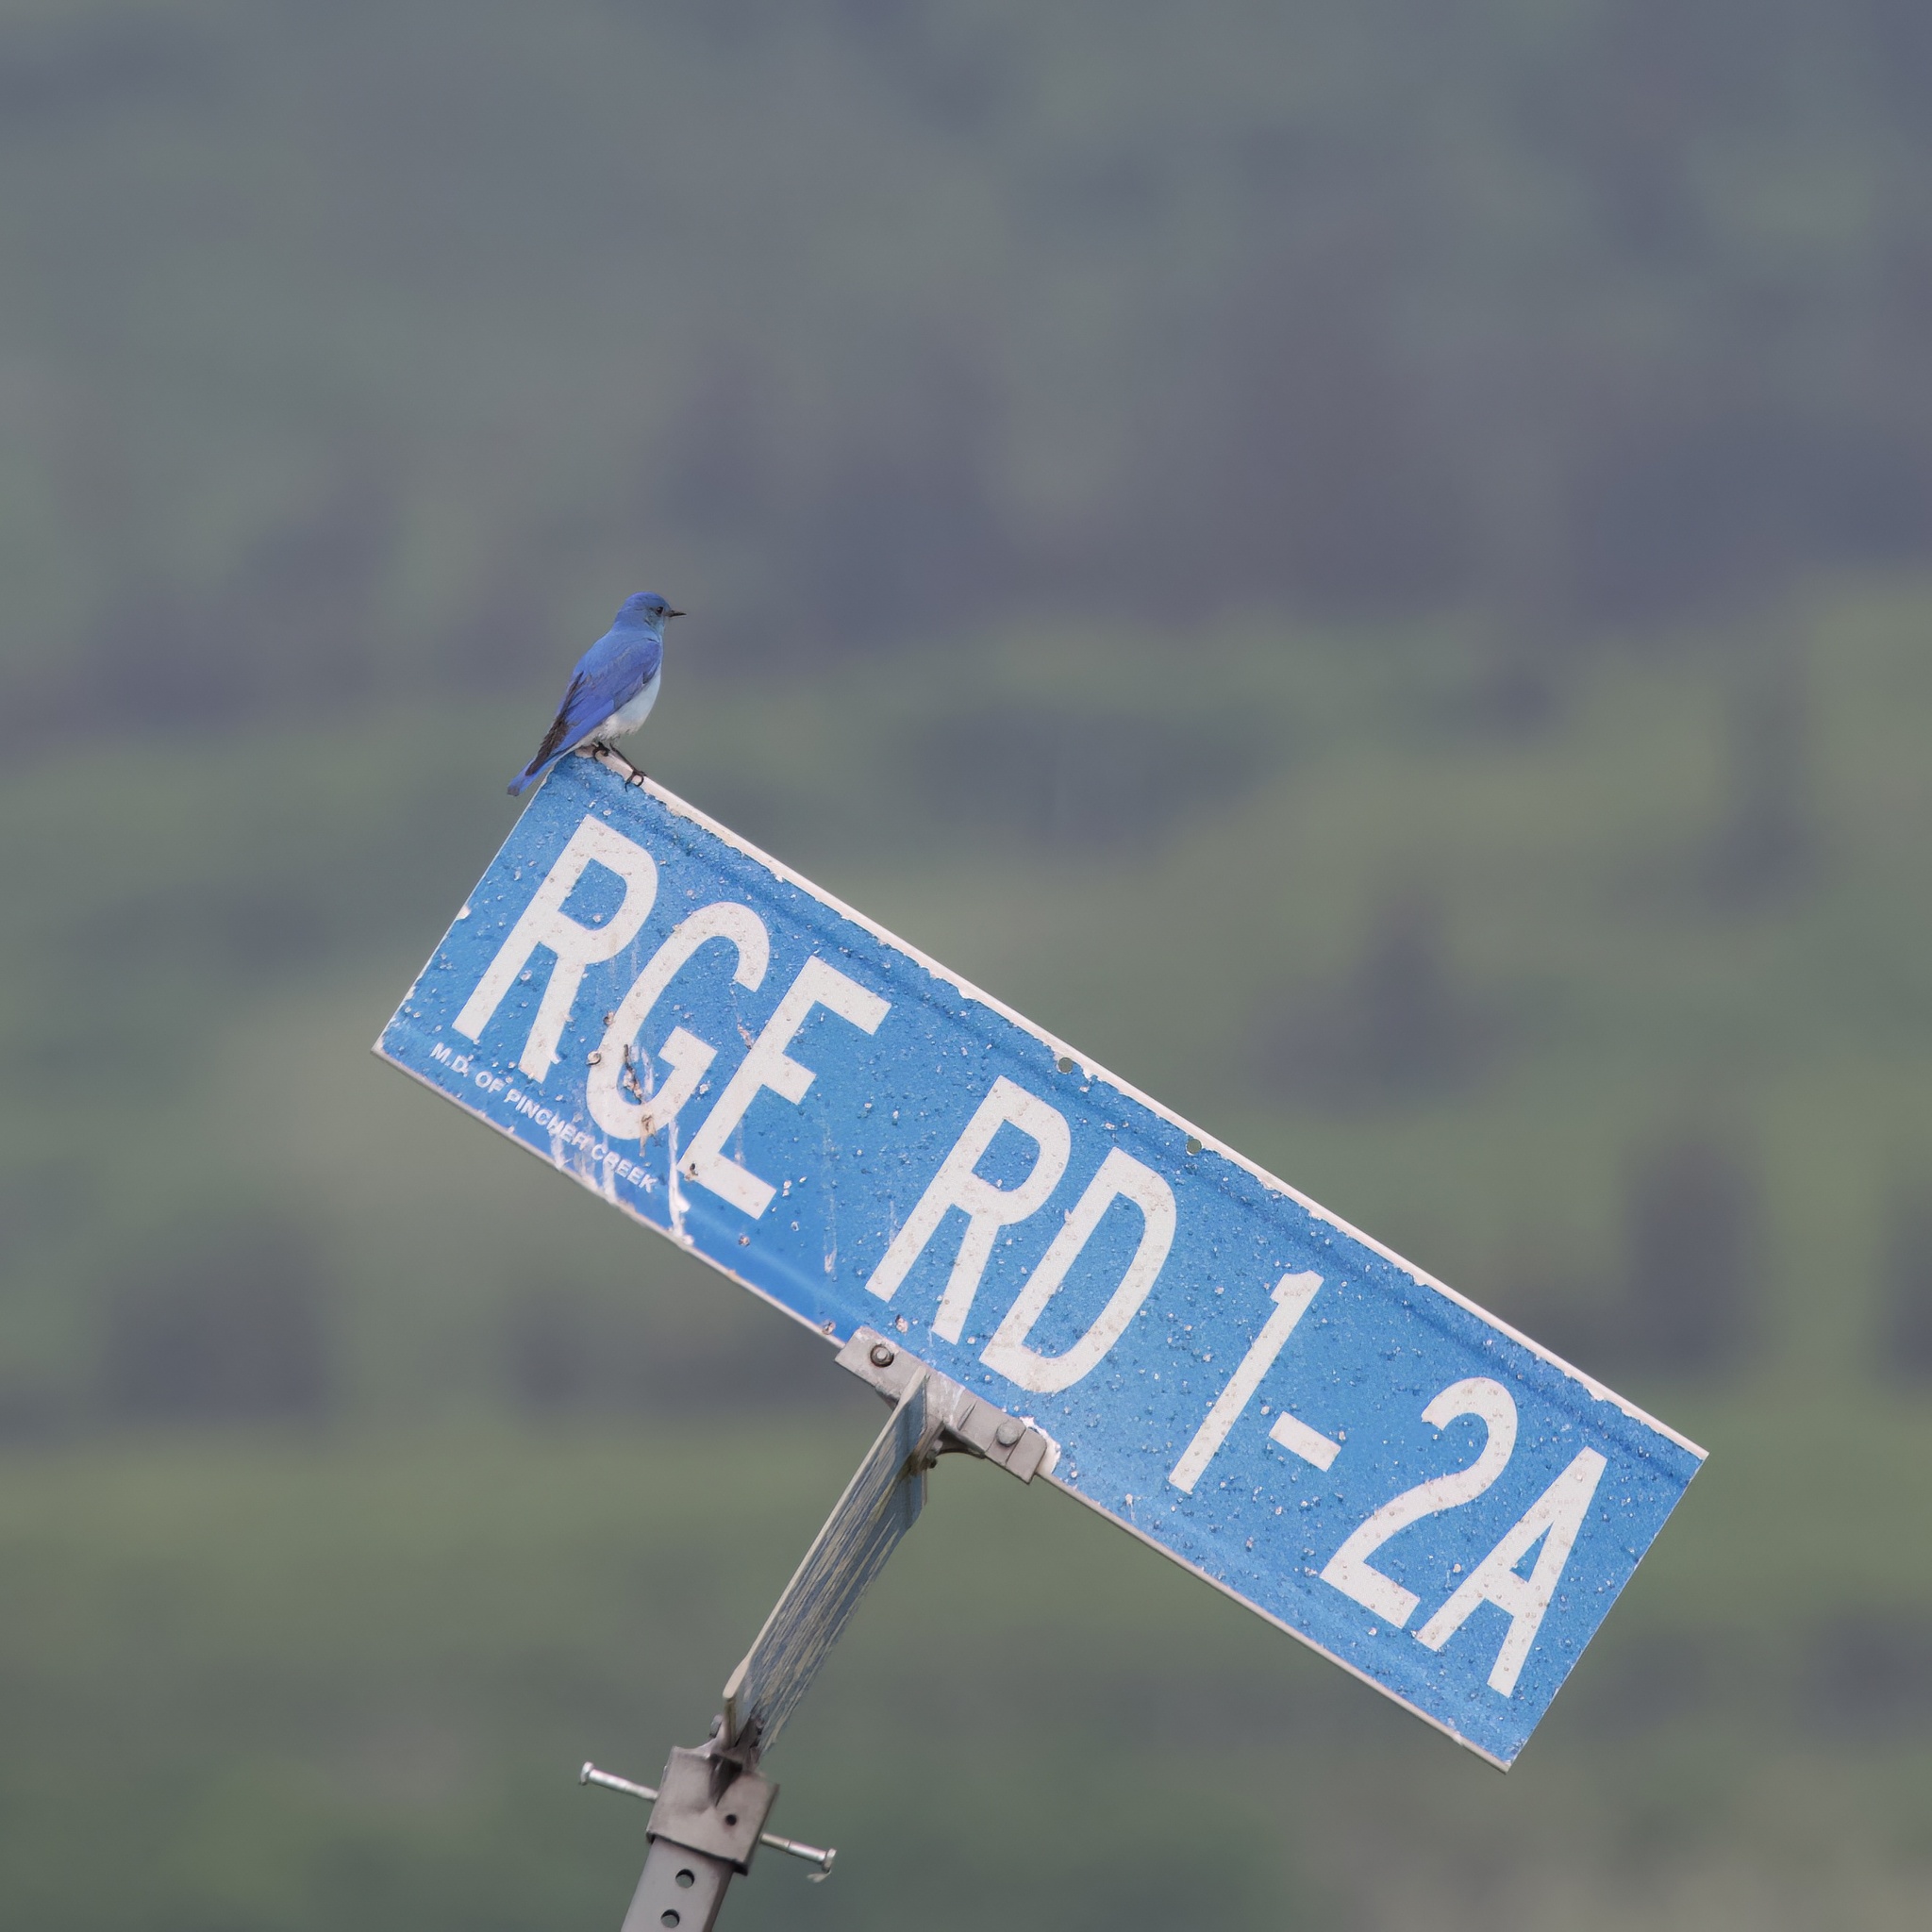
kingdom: Animalia
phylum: Chordata
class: Aves
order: Passeriformes
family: Turdidae
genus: Sialia
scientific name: Sialia currucoides
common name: Mountain bluebird
